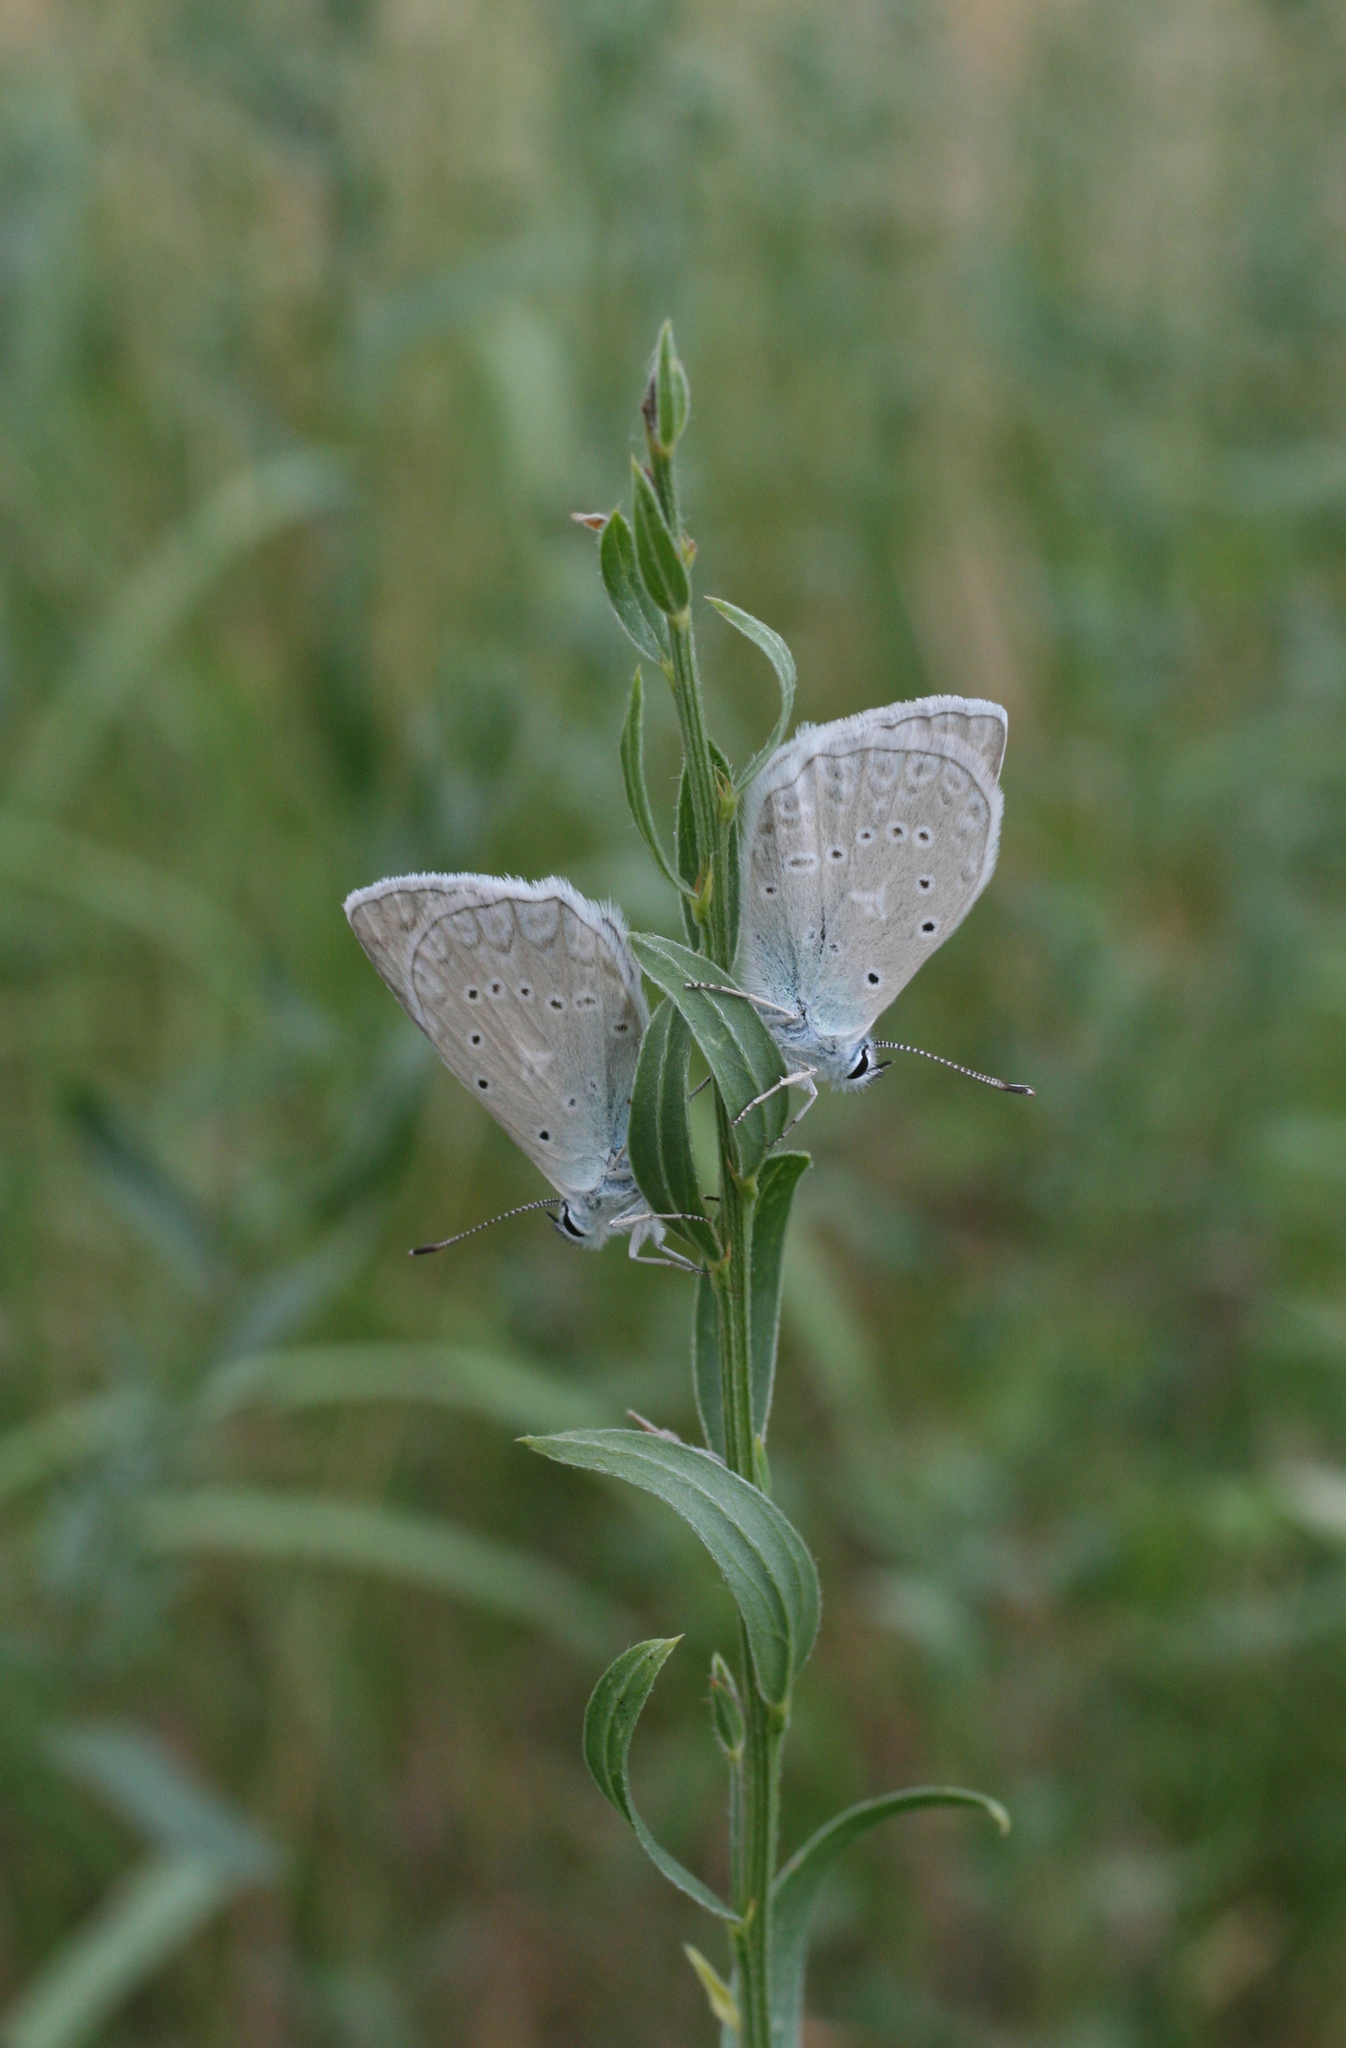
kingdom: Animalia
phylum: Arthropoda
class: Insecta
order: Lepidoptera
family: Lycaenidae
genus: Polyommatus
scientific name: Polyommatus daphnis
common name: Meleager's blue
